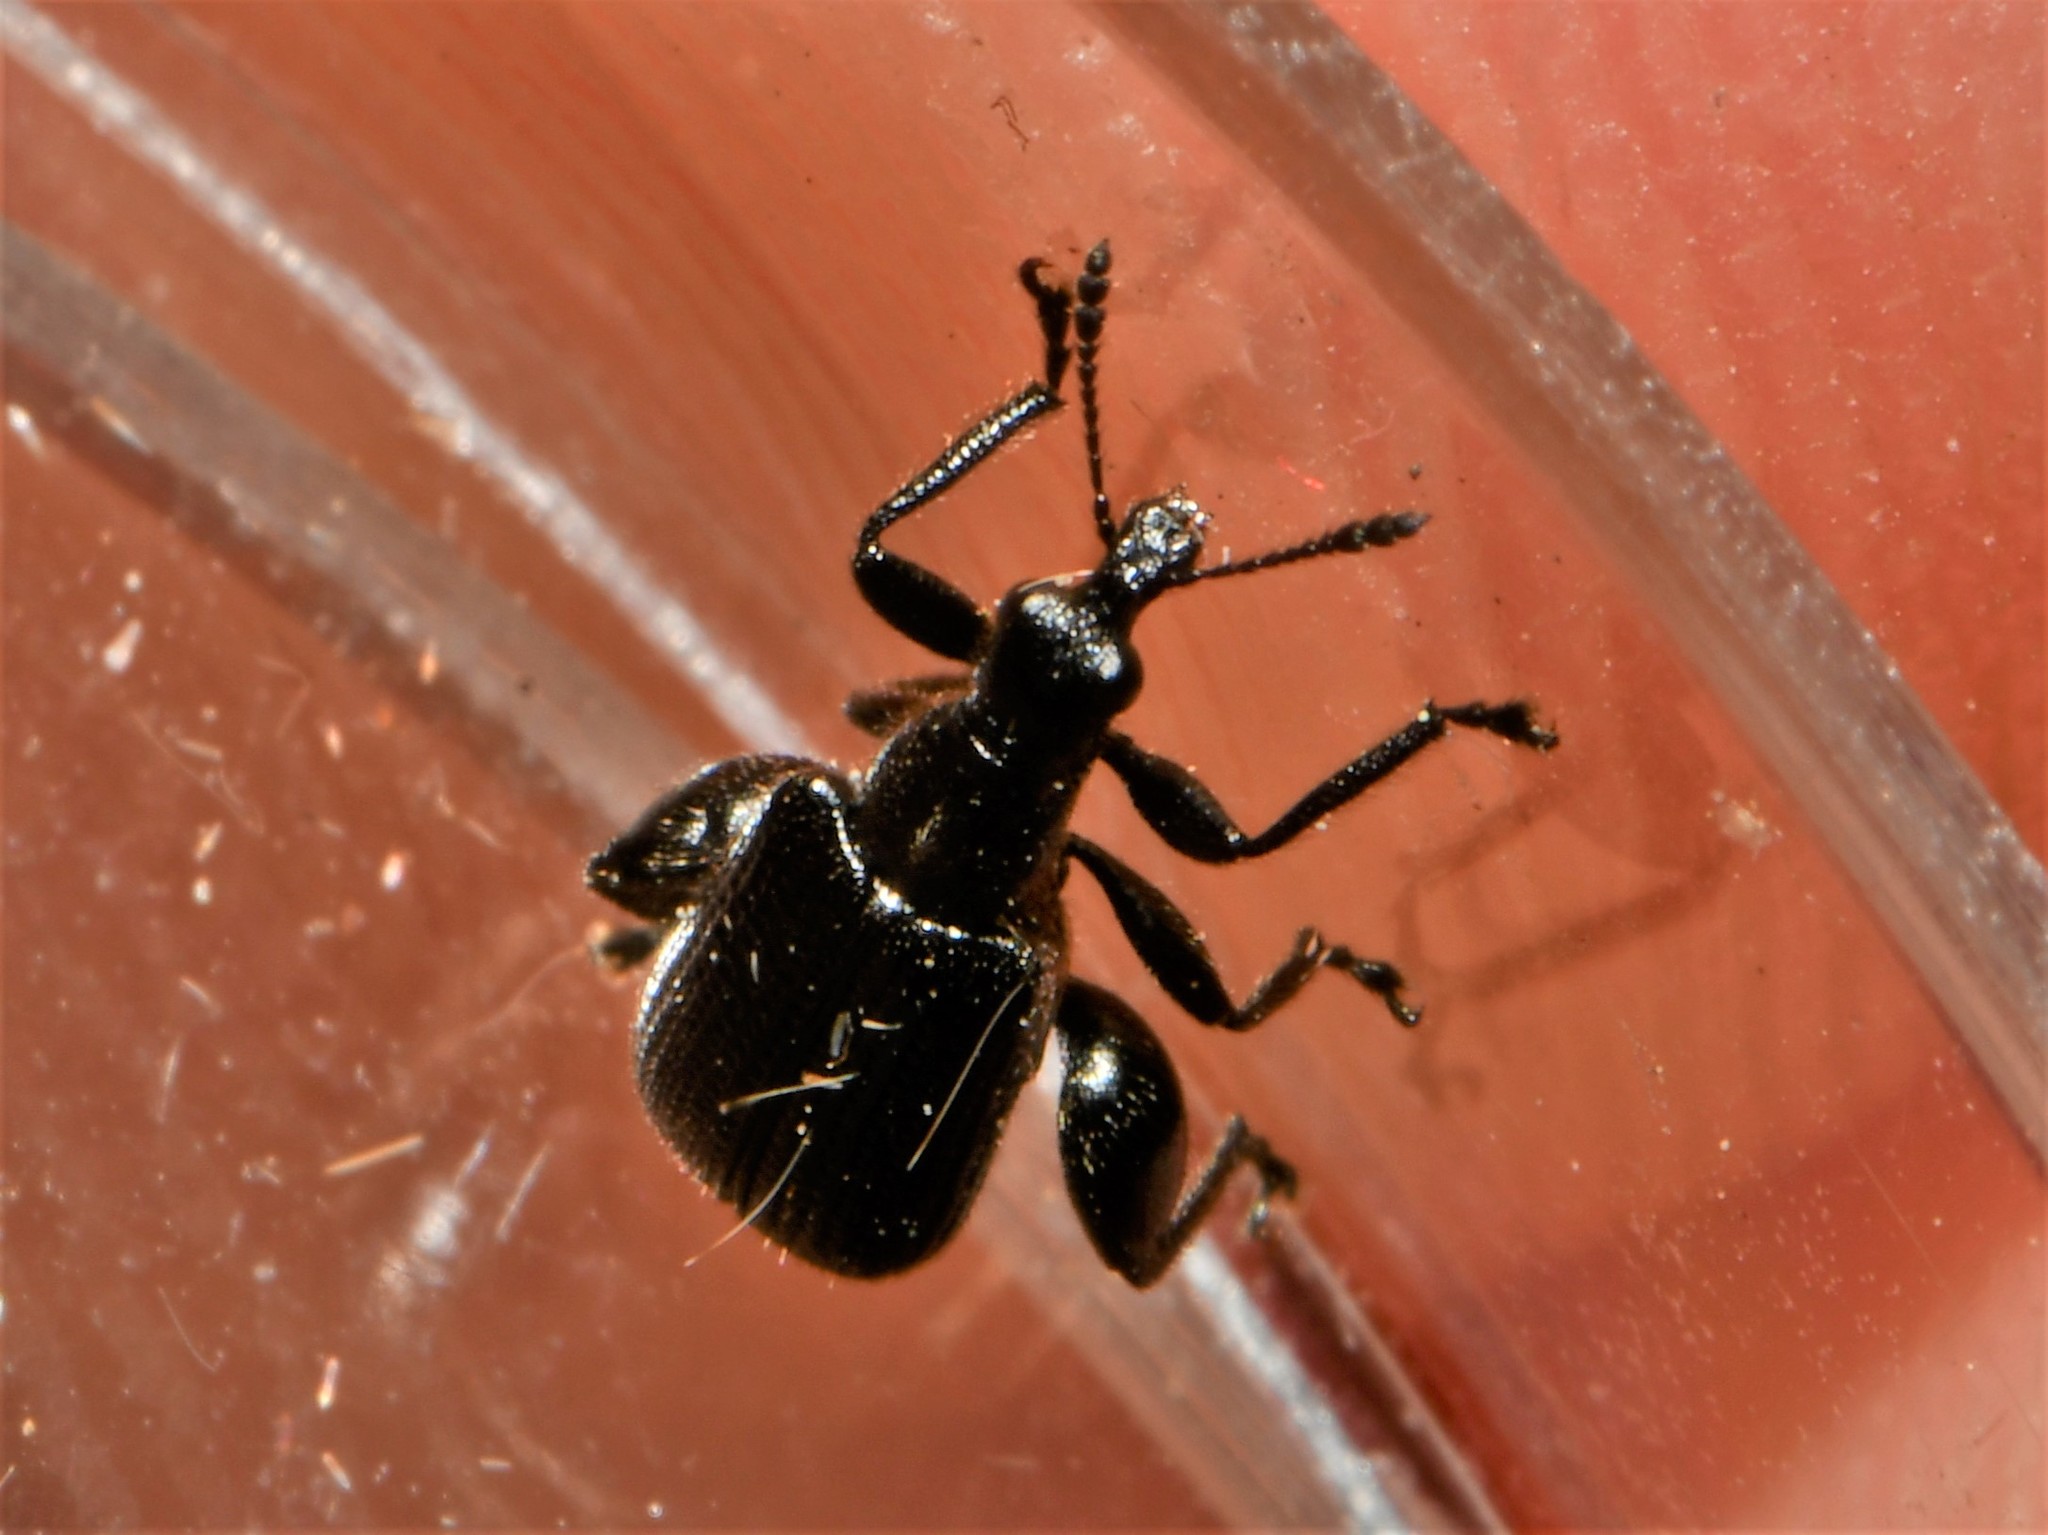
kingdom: Animalia
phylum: Arthropoda
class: Insecta
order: Coleoptera
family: Attelabidae
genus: Deporaus
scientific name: Deporaus betulae
